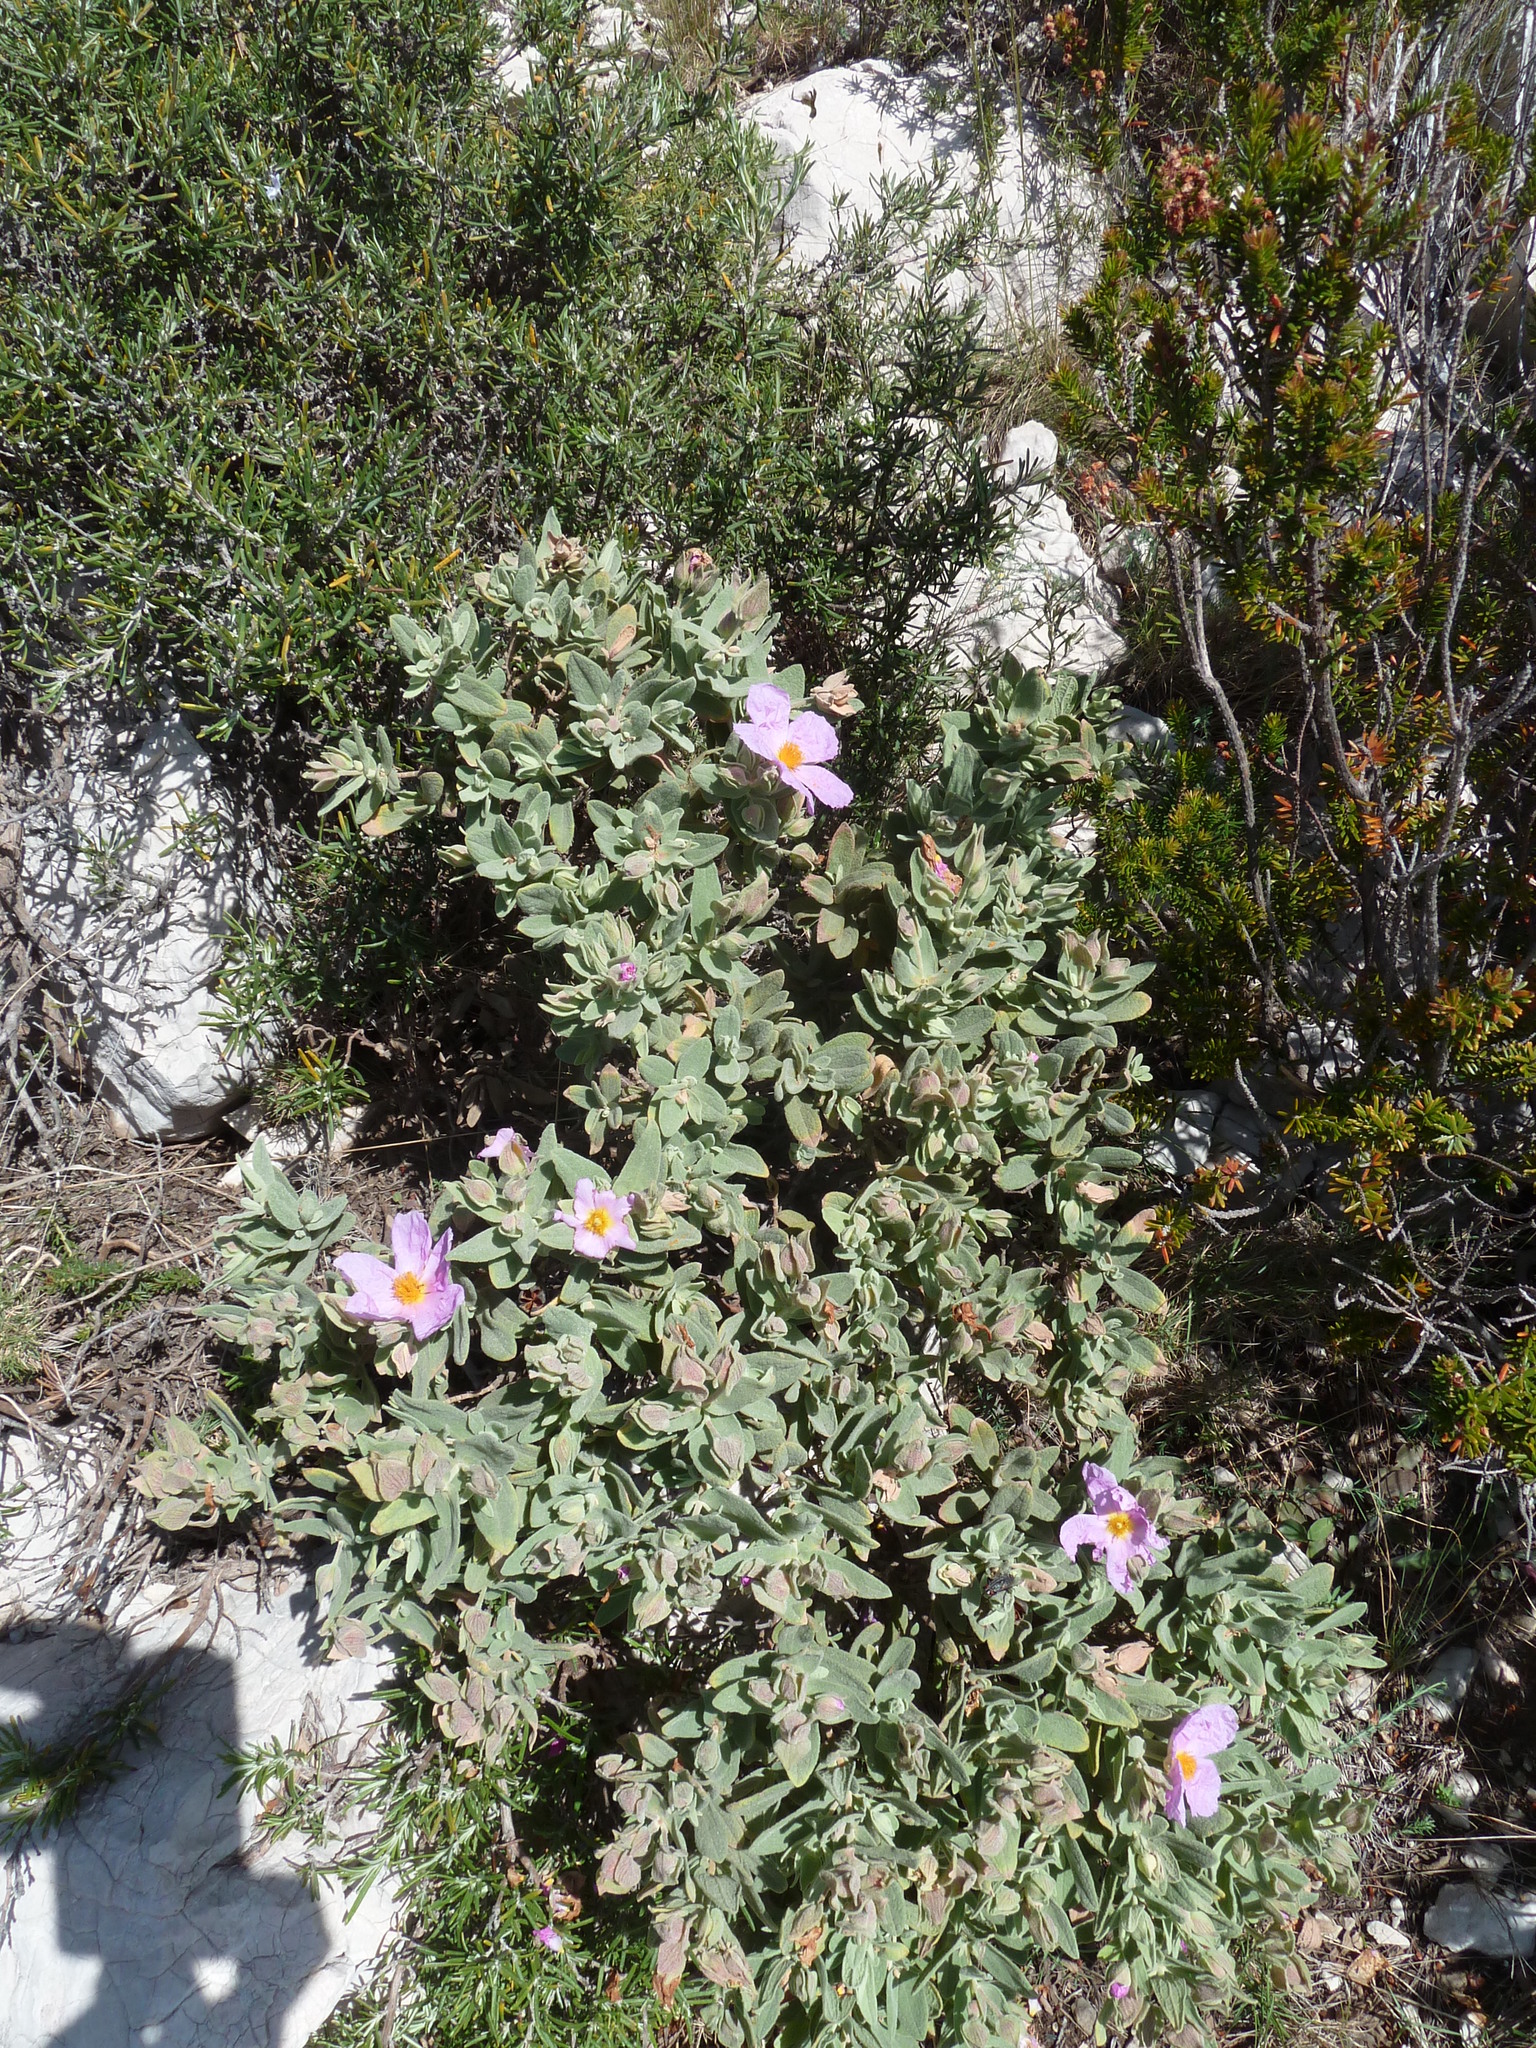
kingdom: Plantae
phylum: Tracheophyta
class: Magnoliopsida
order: Malvales
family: Cistaceae
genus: Cistus
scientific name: Cistus albidus
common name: White-leaf rock-rose
